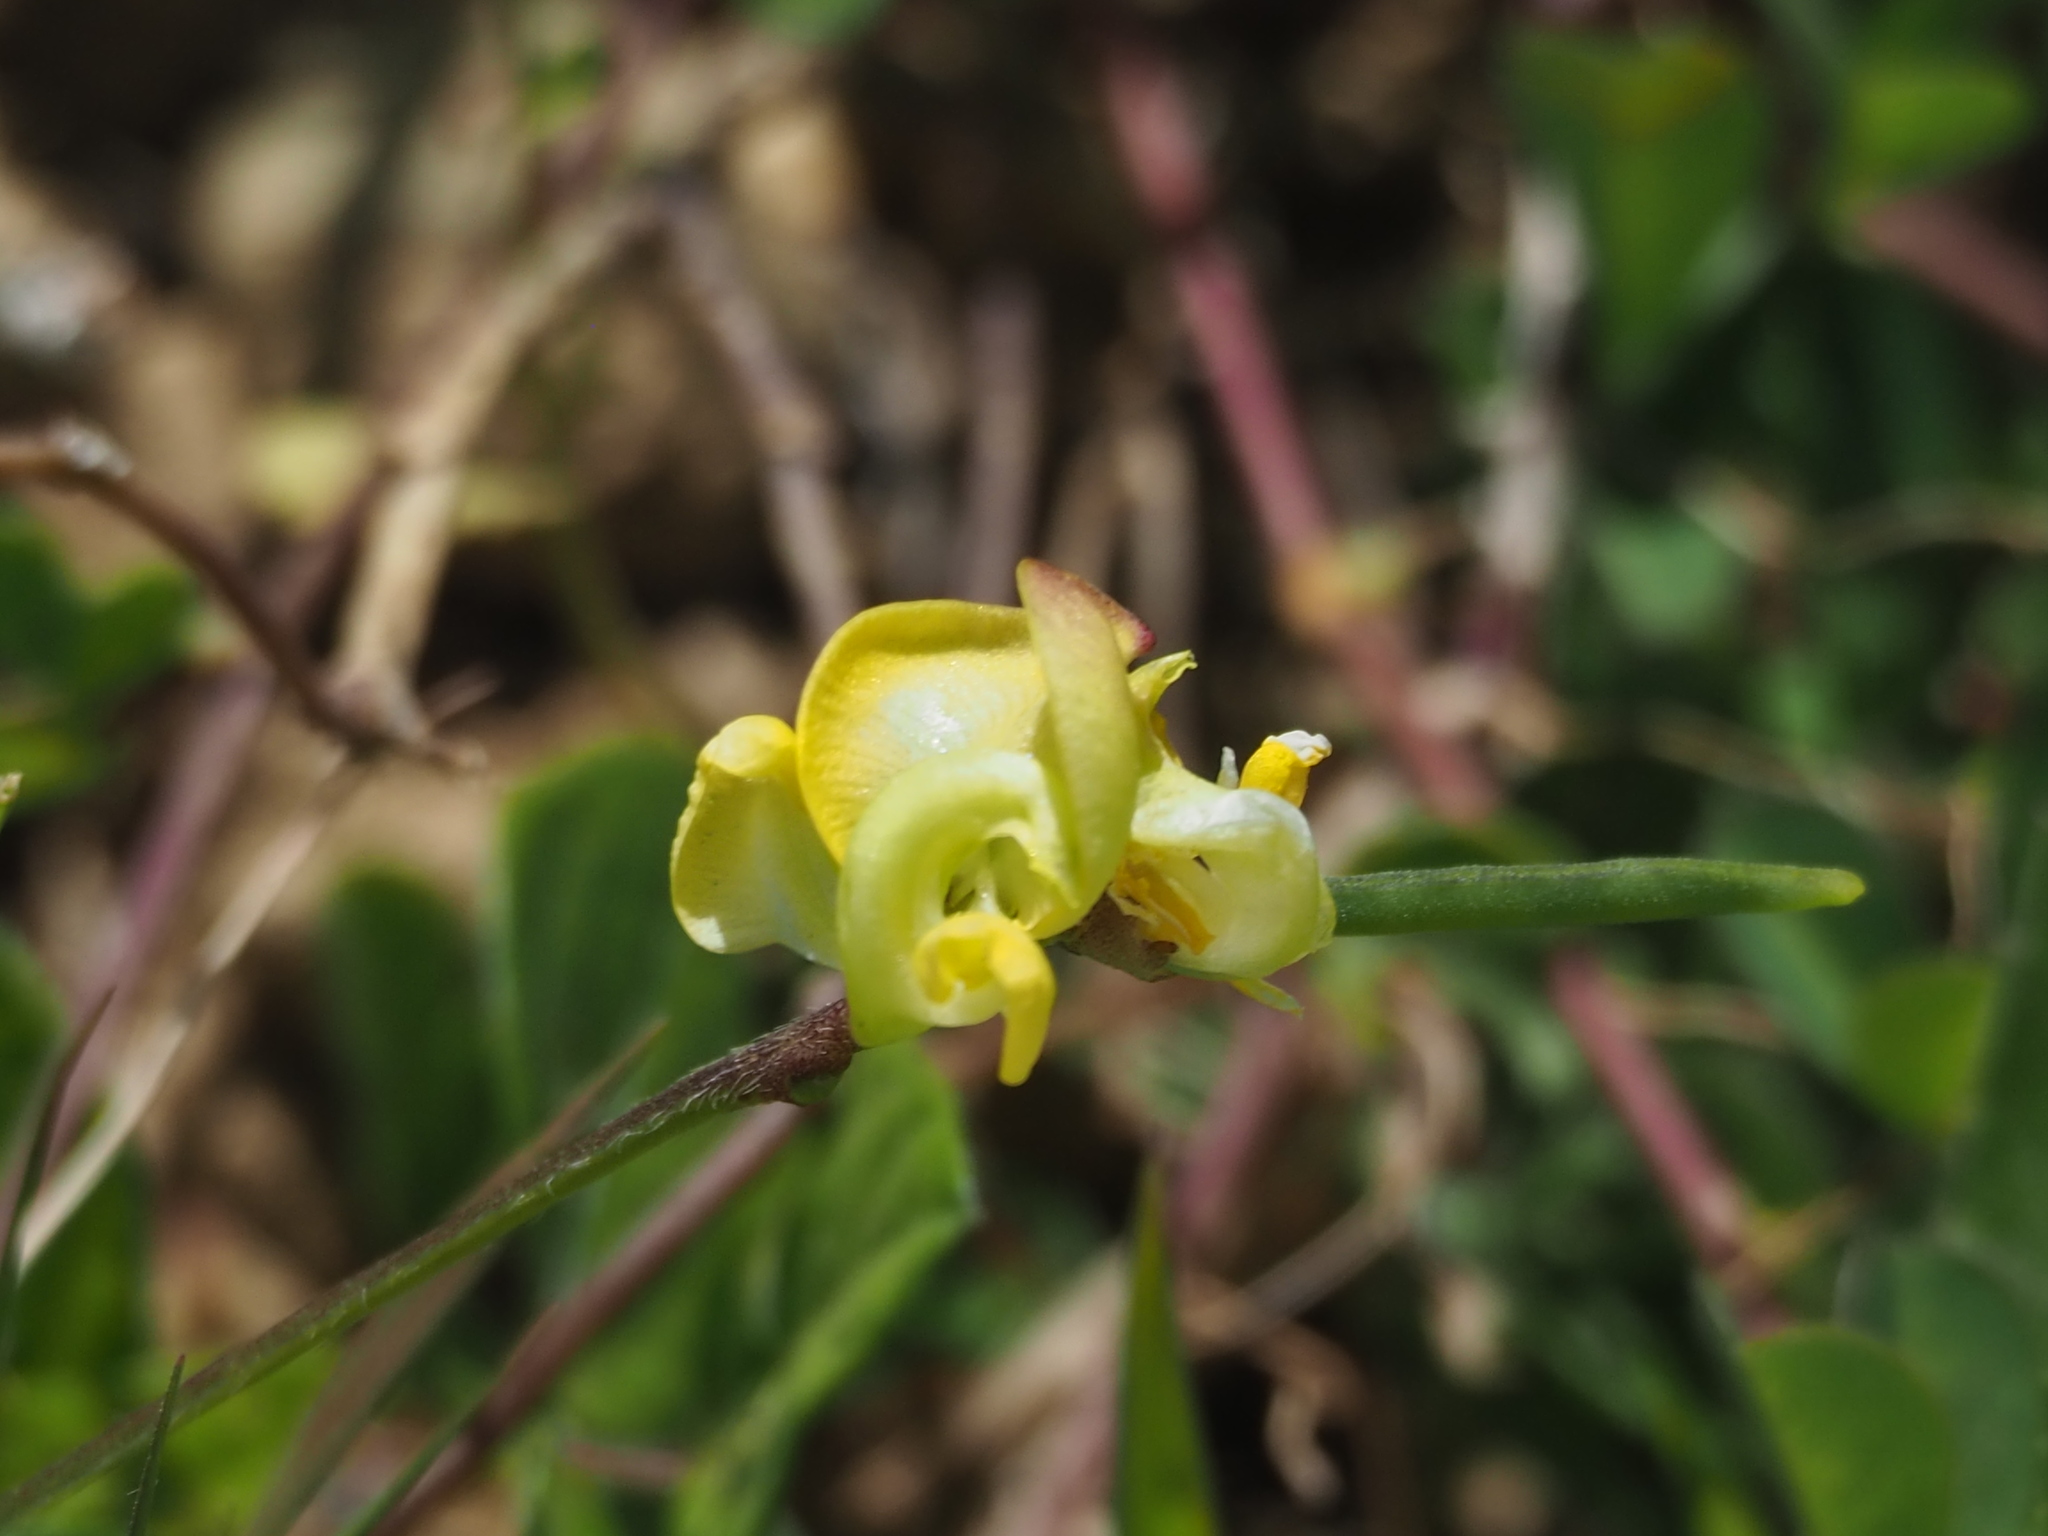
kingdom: Plantae
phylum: Tracheophyta
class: Magnoliopsida
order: Fabales
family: Fabaceae
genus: Vigna
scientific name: Vigna reflexopilosa
